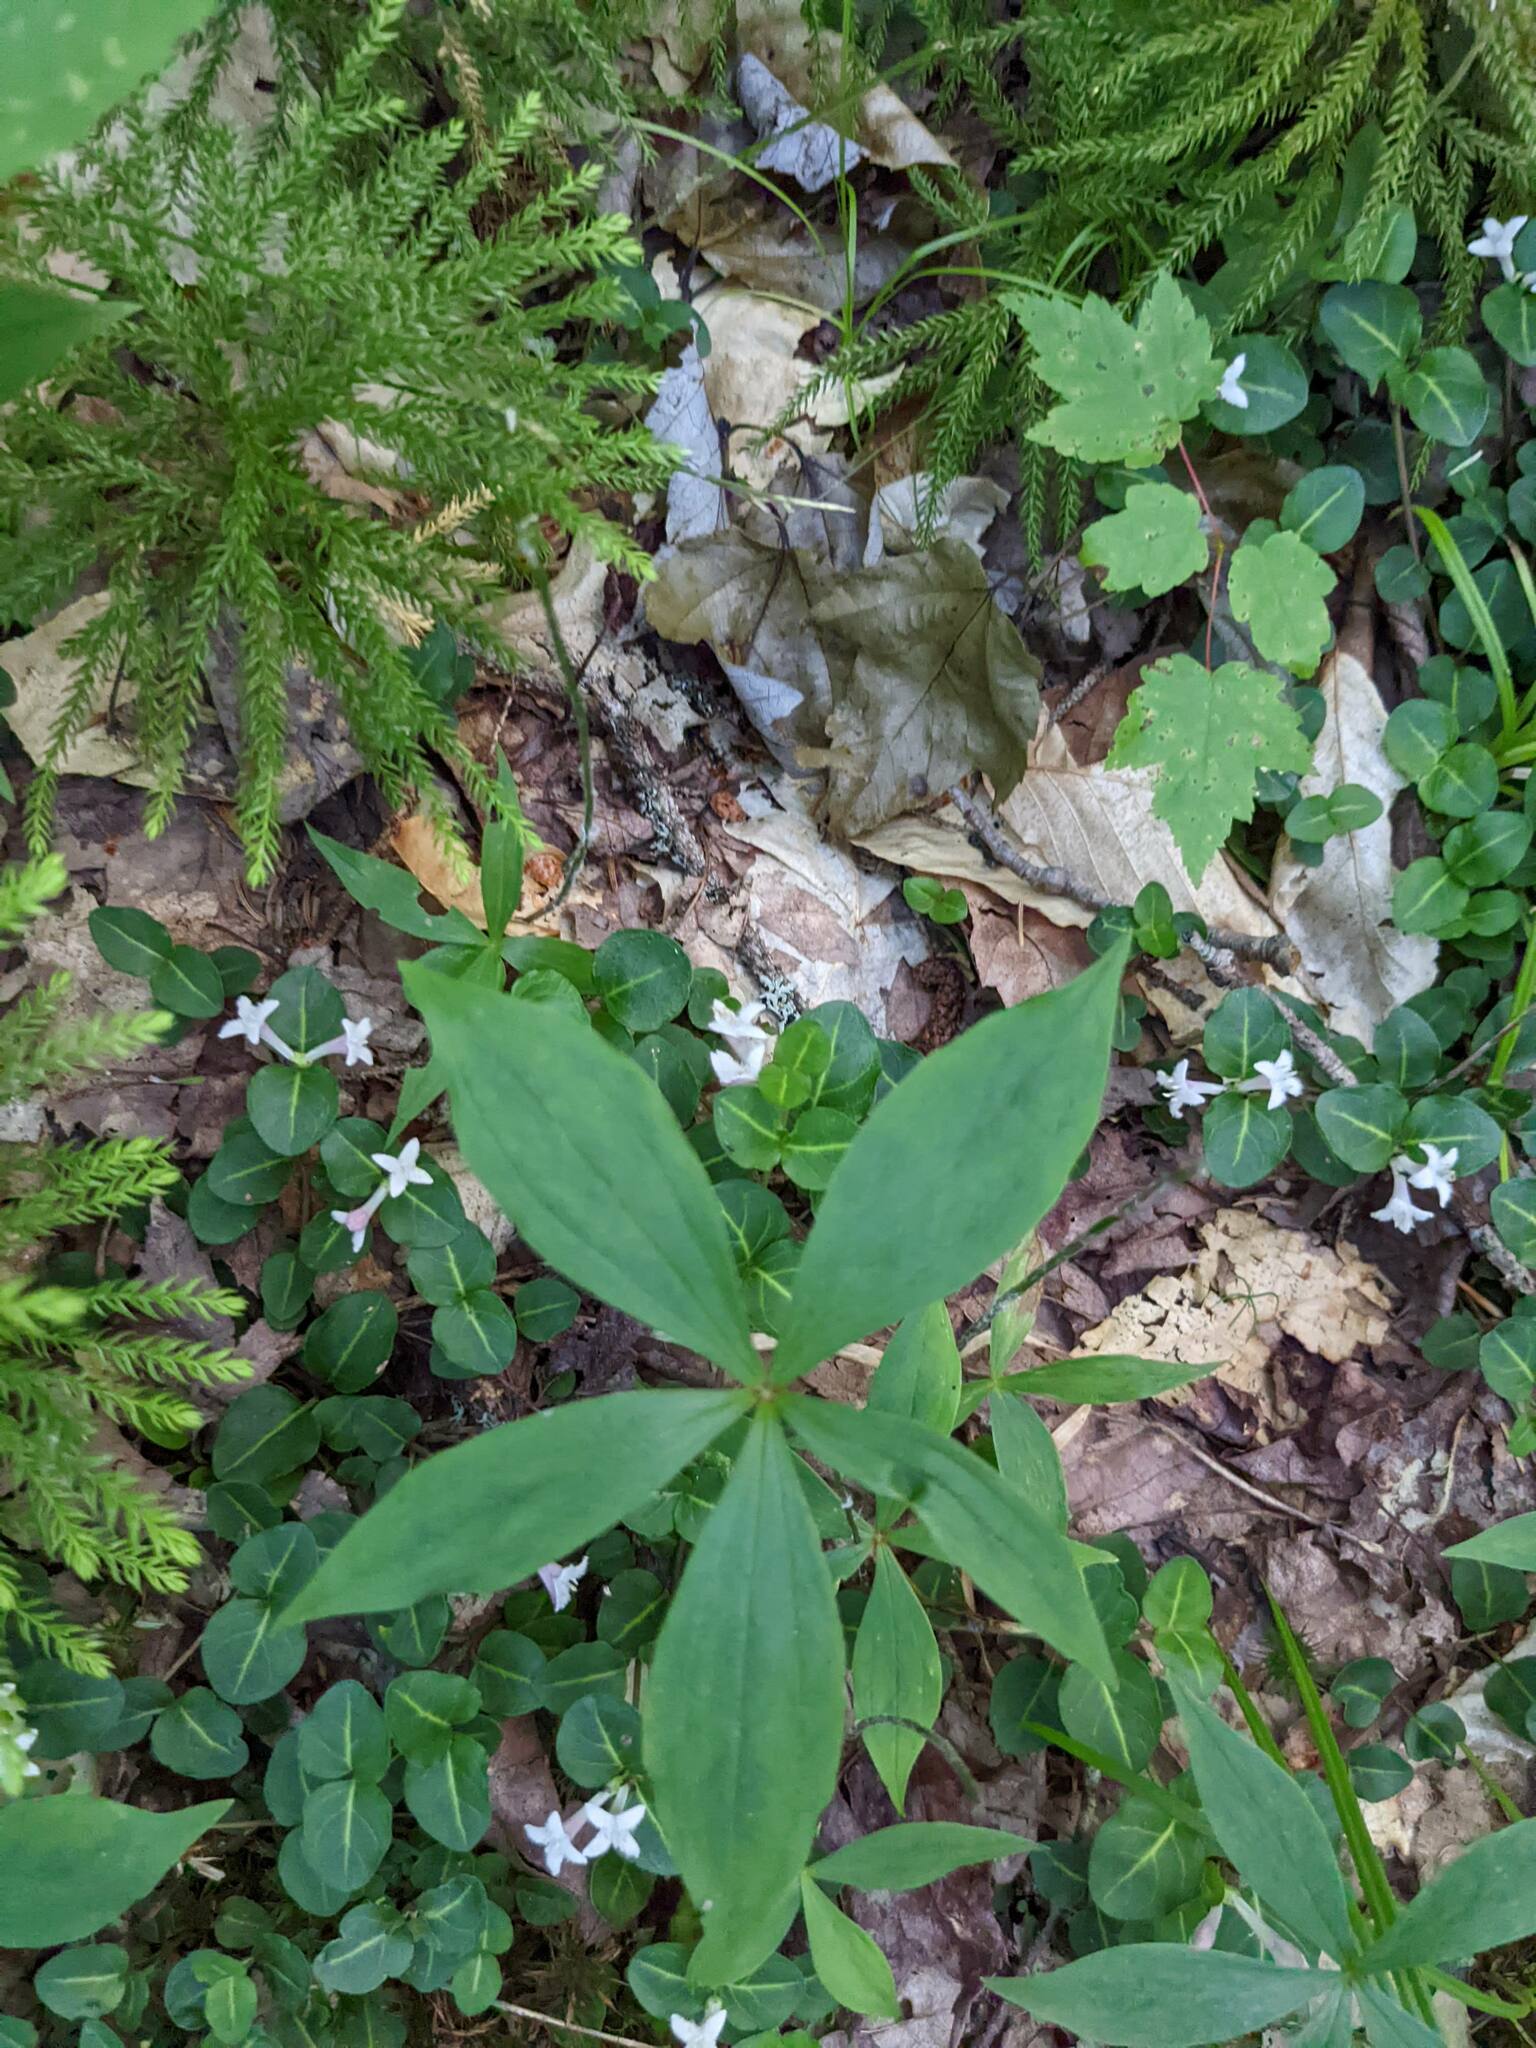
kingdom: Plantae
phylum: Tracheophyta
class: Liliopsida
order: Liliales
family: Liliaceae
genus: Medeola
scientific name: Medeola virginiana
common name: Indian cucumber-root
